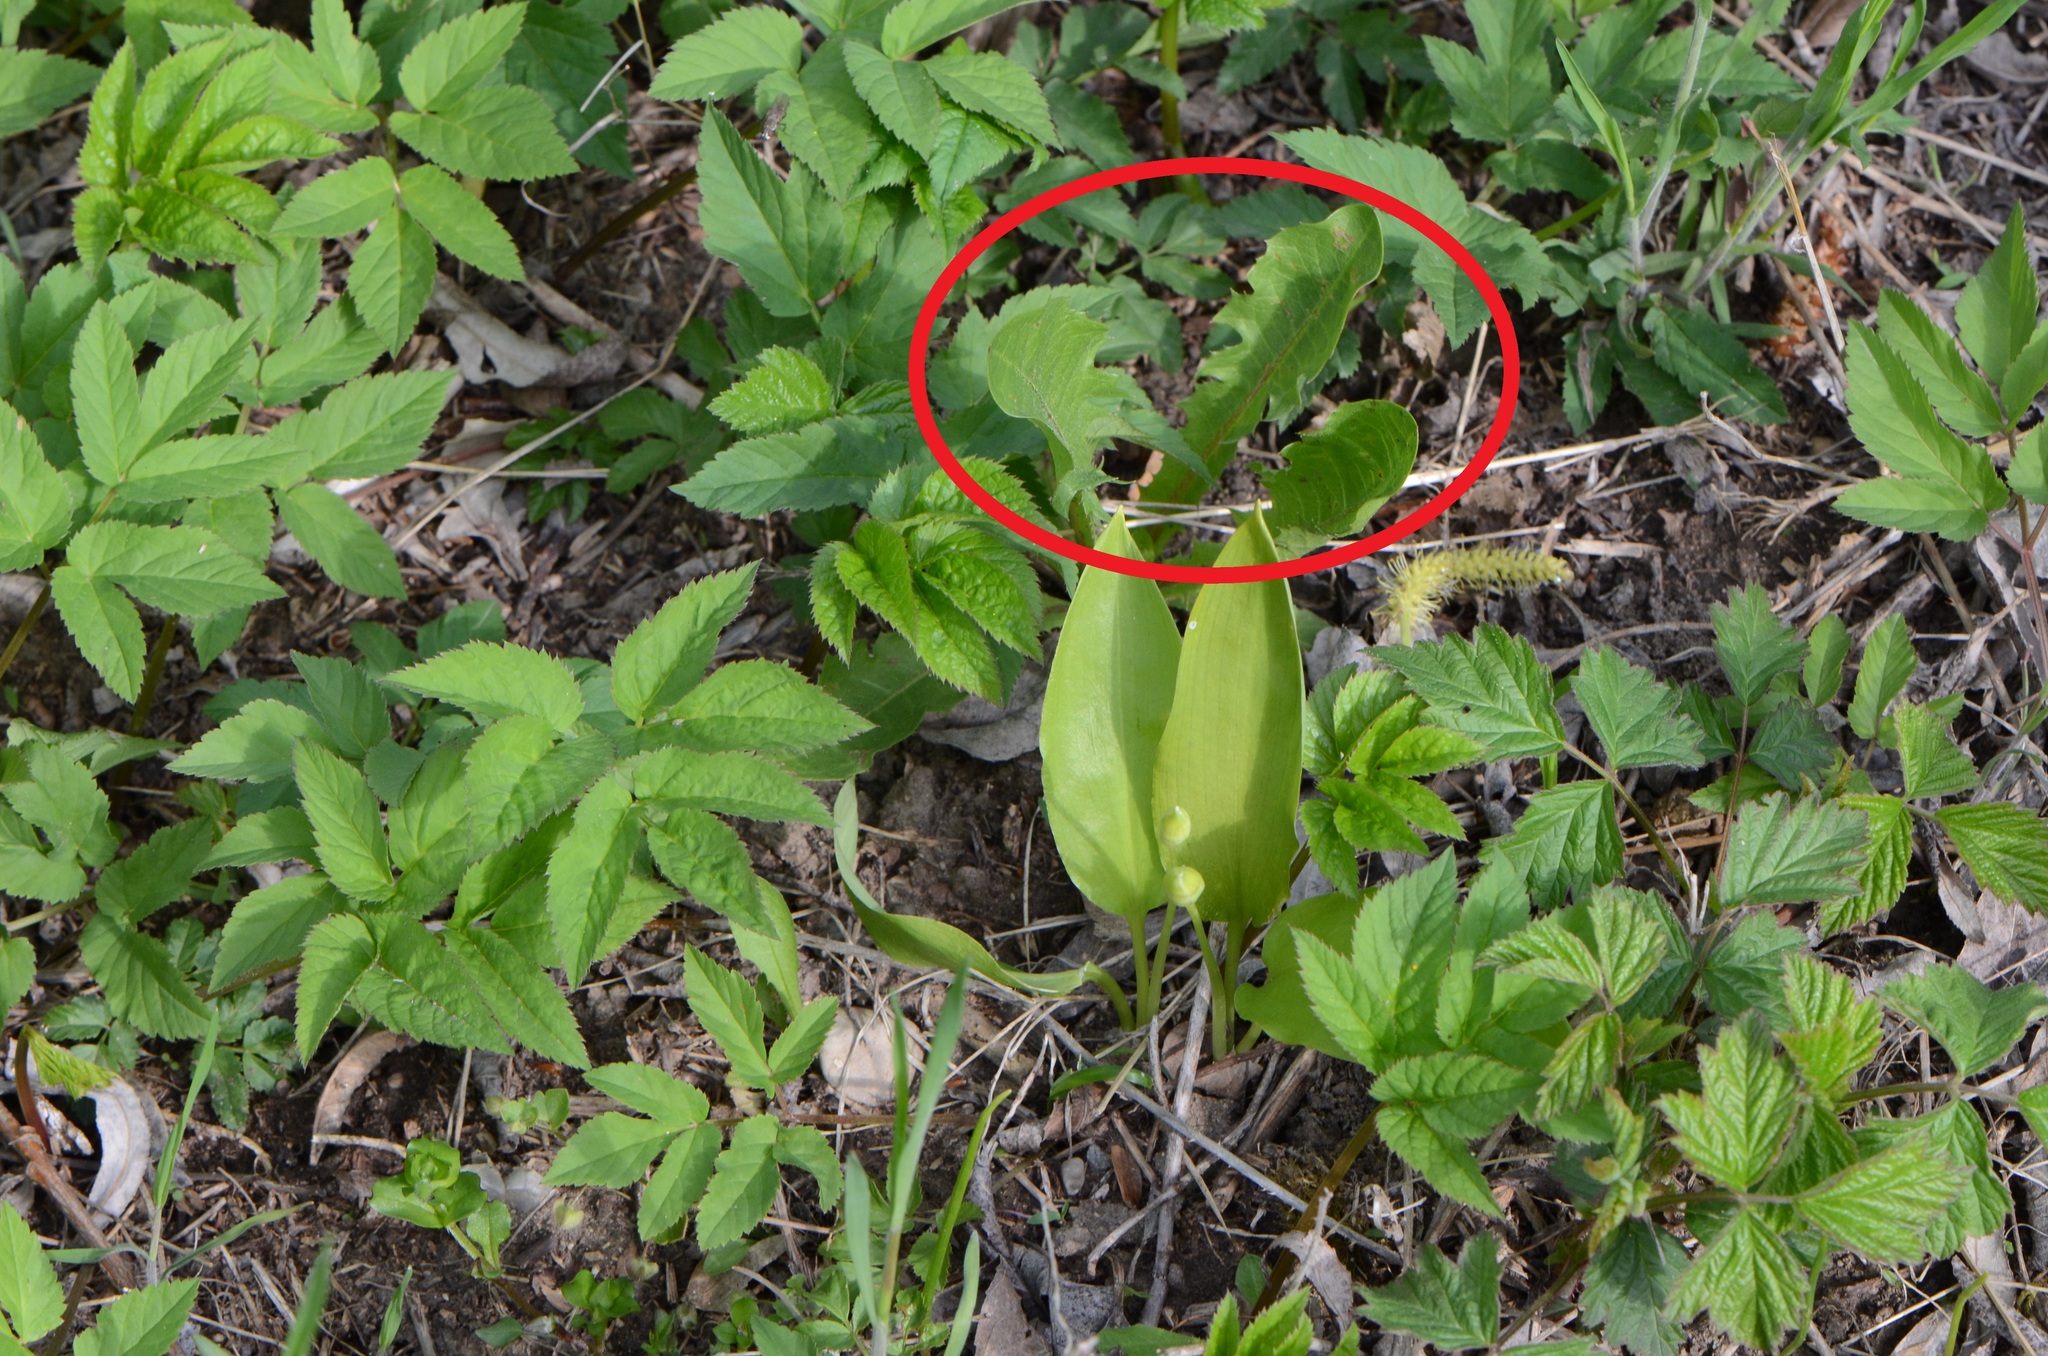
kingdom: Plantae
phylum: Tracheophyta
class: Magnoliopsida
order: Asterales
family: Asteraceae
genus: Taraxacum
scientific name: Taraxacum officinale
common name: Common dandelion
